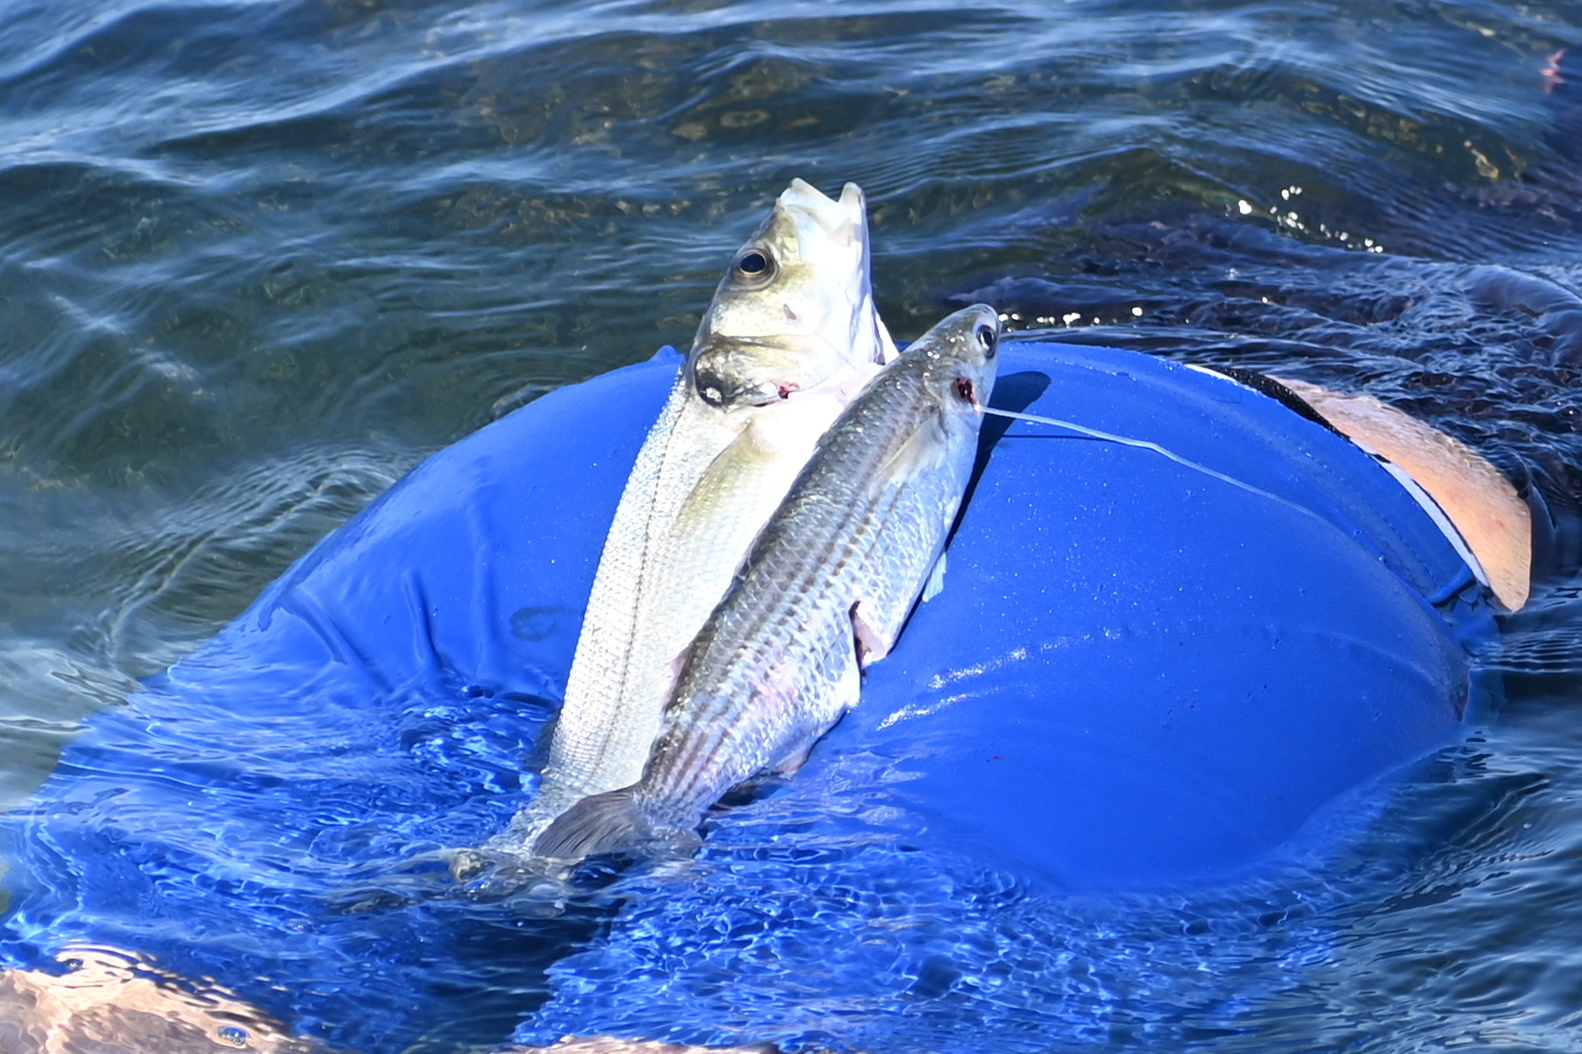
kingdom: Animalia
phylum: Chordata
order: Perciformes
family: Moronidae
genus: Dicentrarchus
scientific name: Dicentrarchus labrax
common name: European seabass
